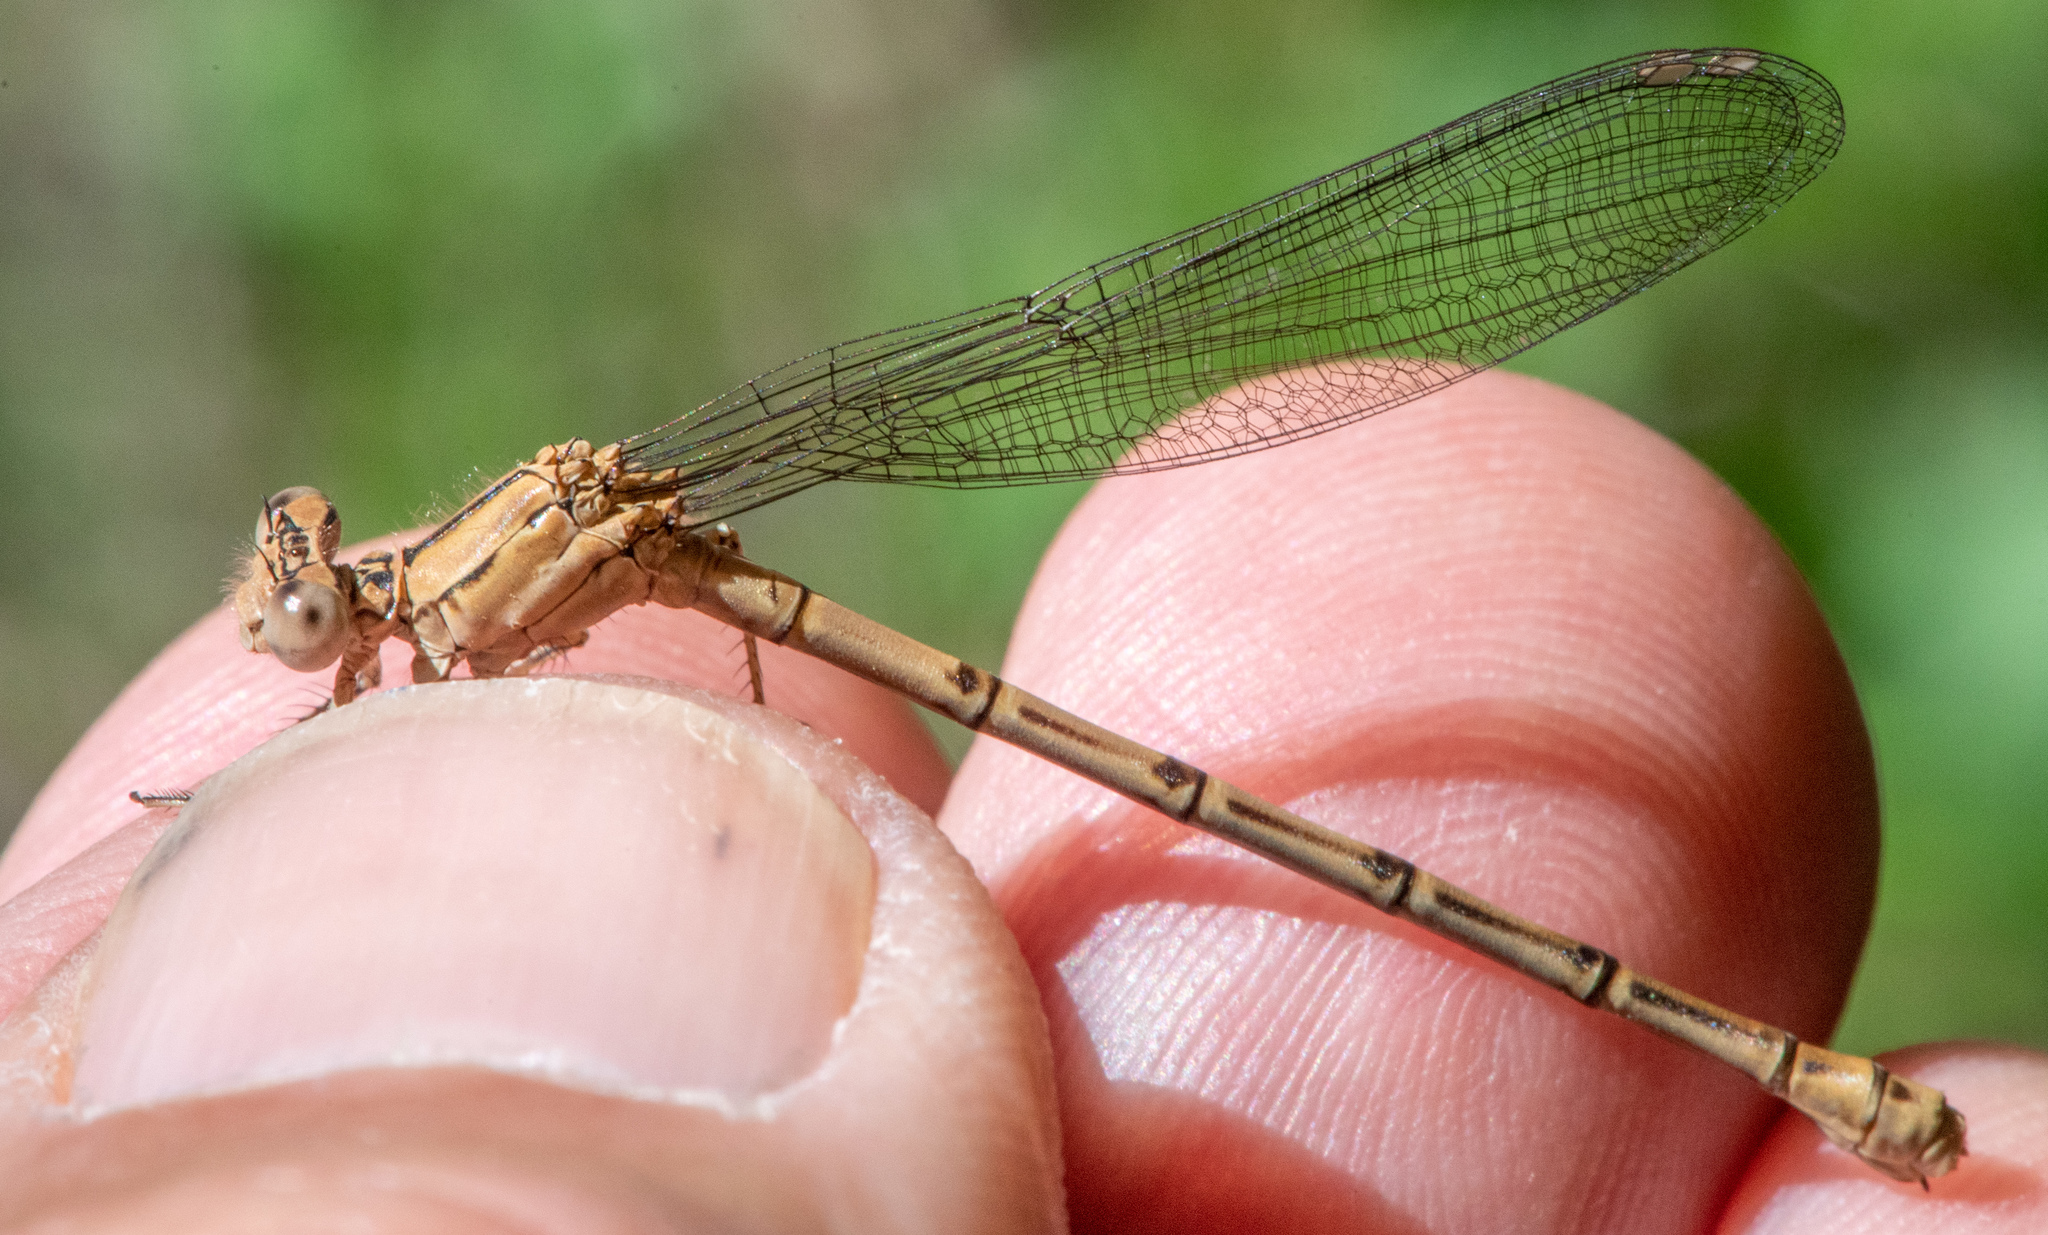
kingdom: Animalia
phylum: Arthropoda
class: Insecta
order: Odonata
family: Coenagrionidae
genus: Argia
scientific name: Argia emma
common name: Emma's dancer
